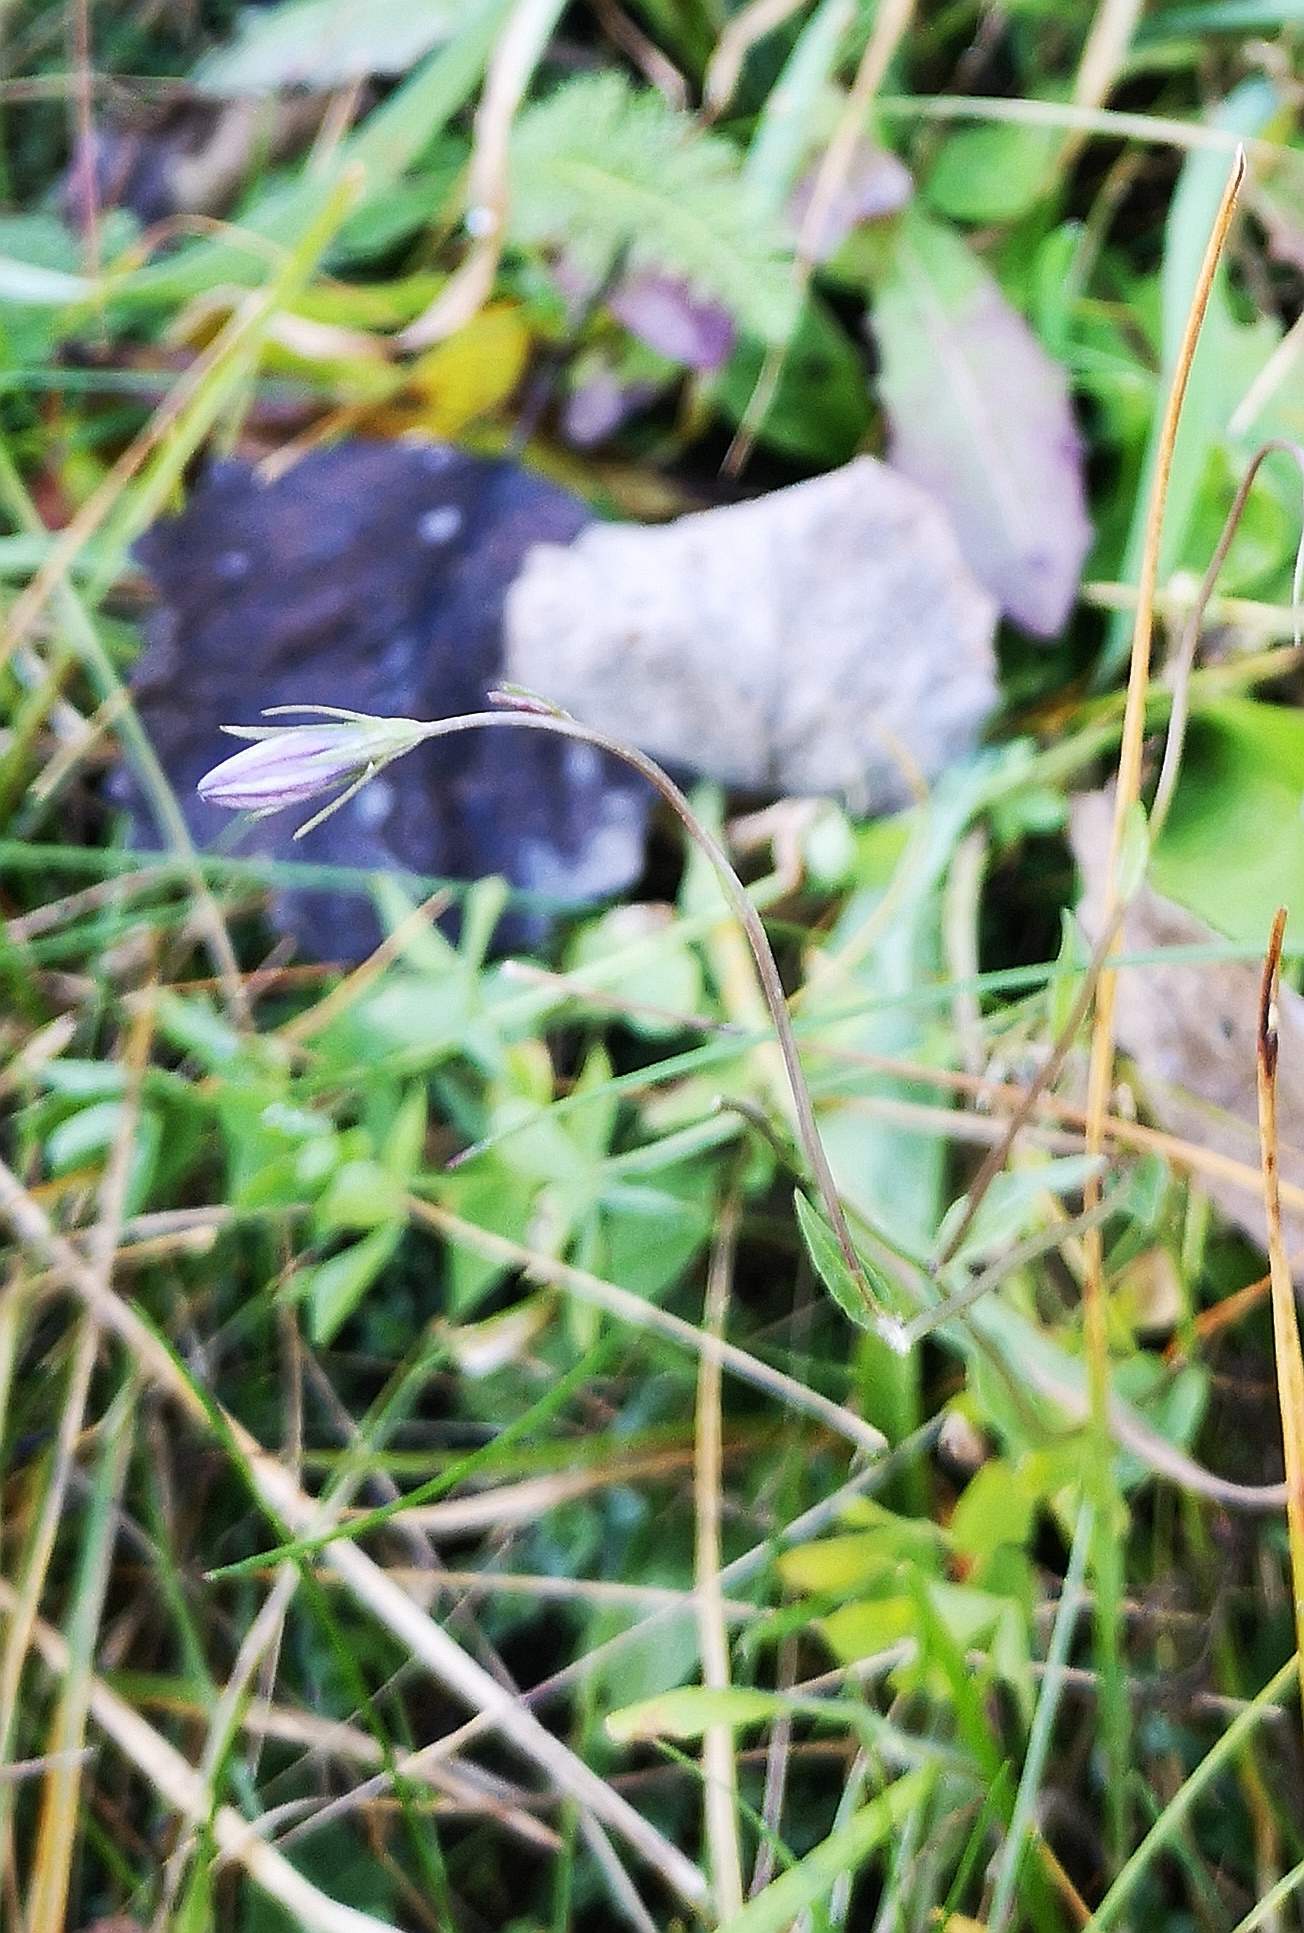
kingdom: Plantae
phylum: Tracheophyta
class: Magnoliopsida
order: Asterales
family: Campanulaceae
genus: Campanula
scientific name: Campanula patula
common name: Spreading bellflower
